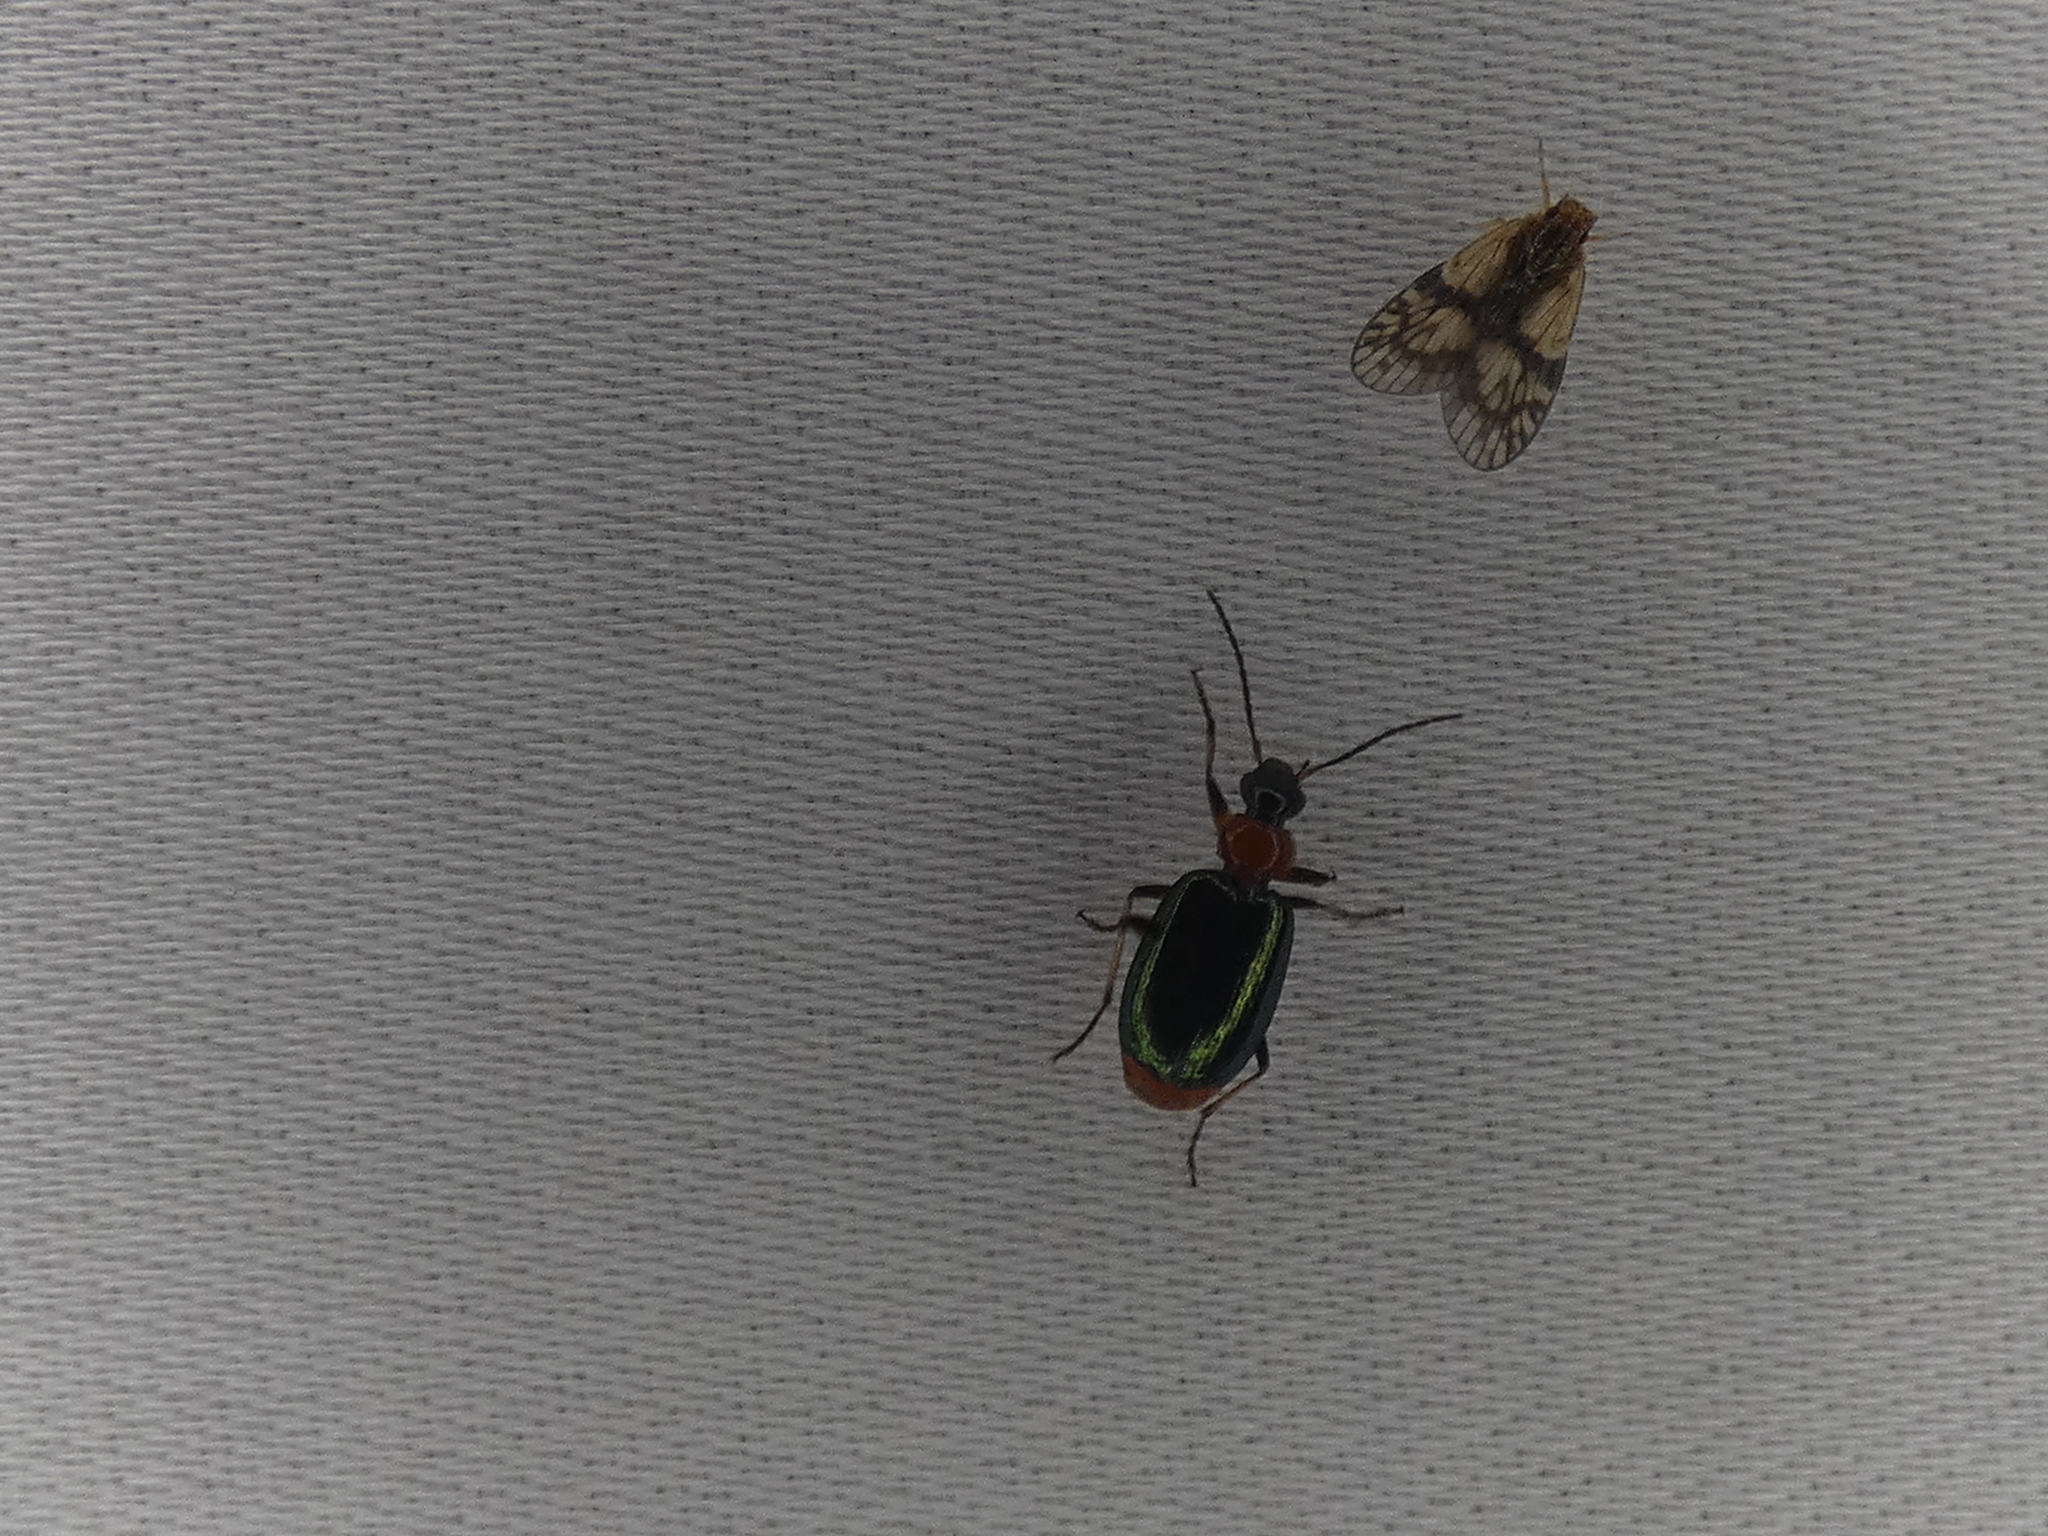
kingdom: Animalia
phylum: Arthropoda
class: Insecta
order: Coleoptera
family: Carabidae
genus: Lebia
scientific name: Lebia viridipennis
